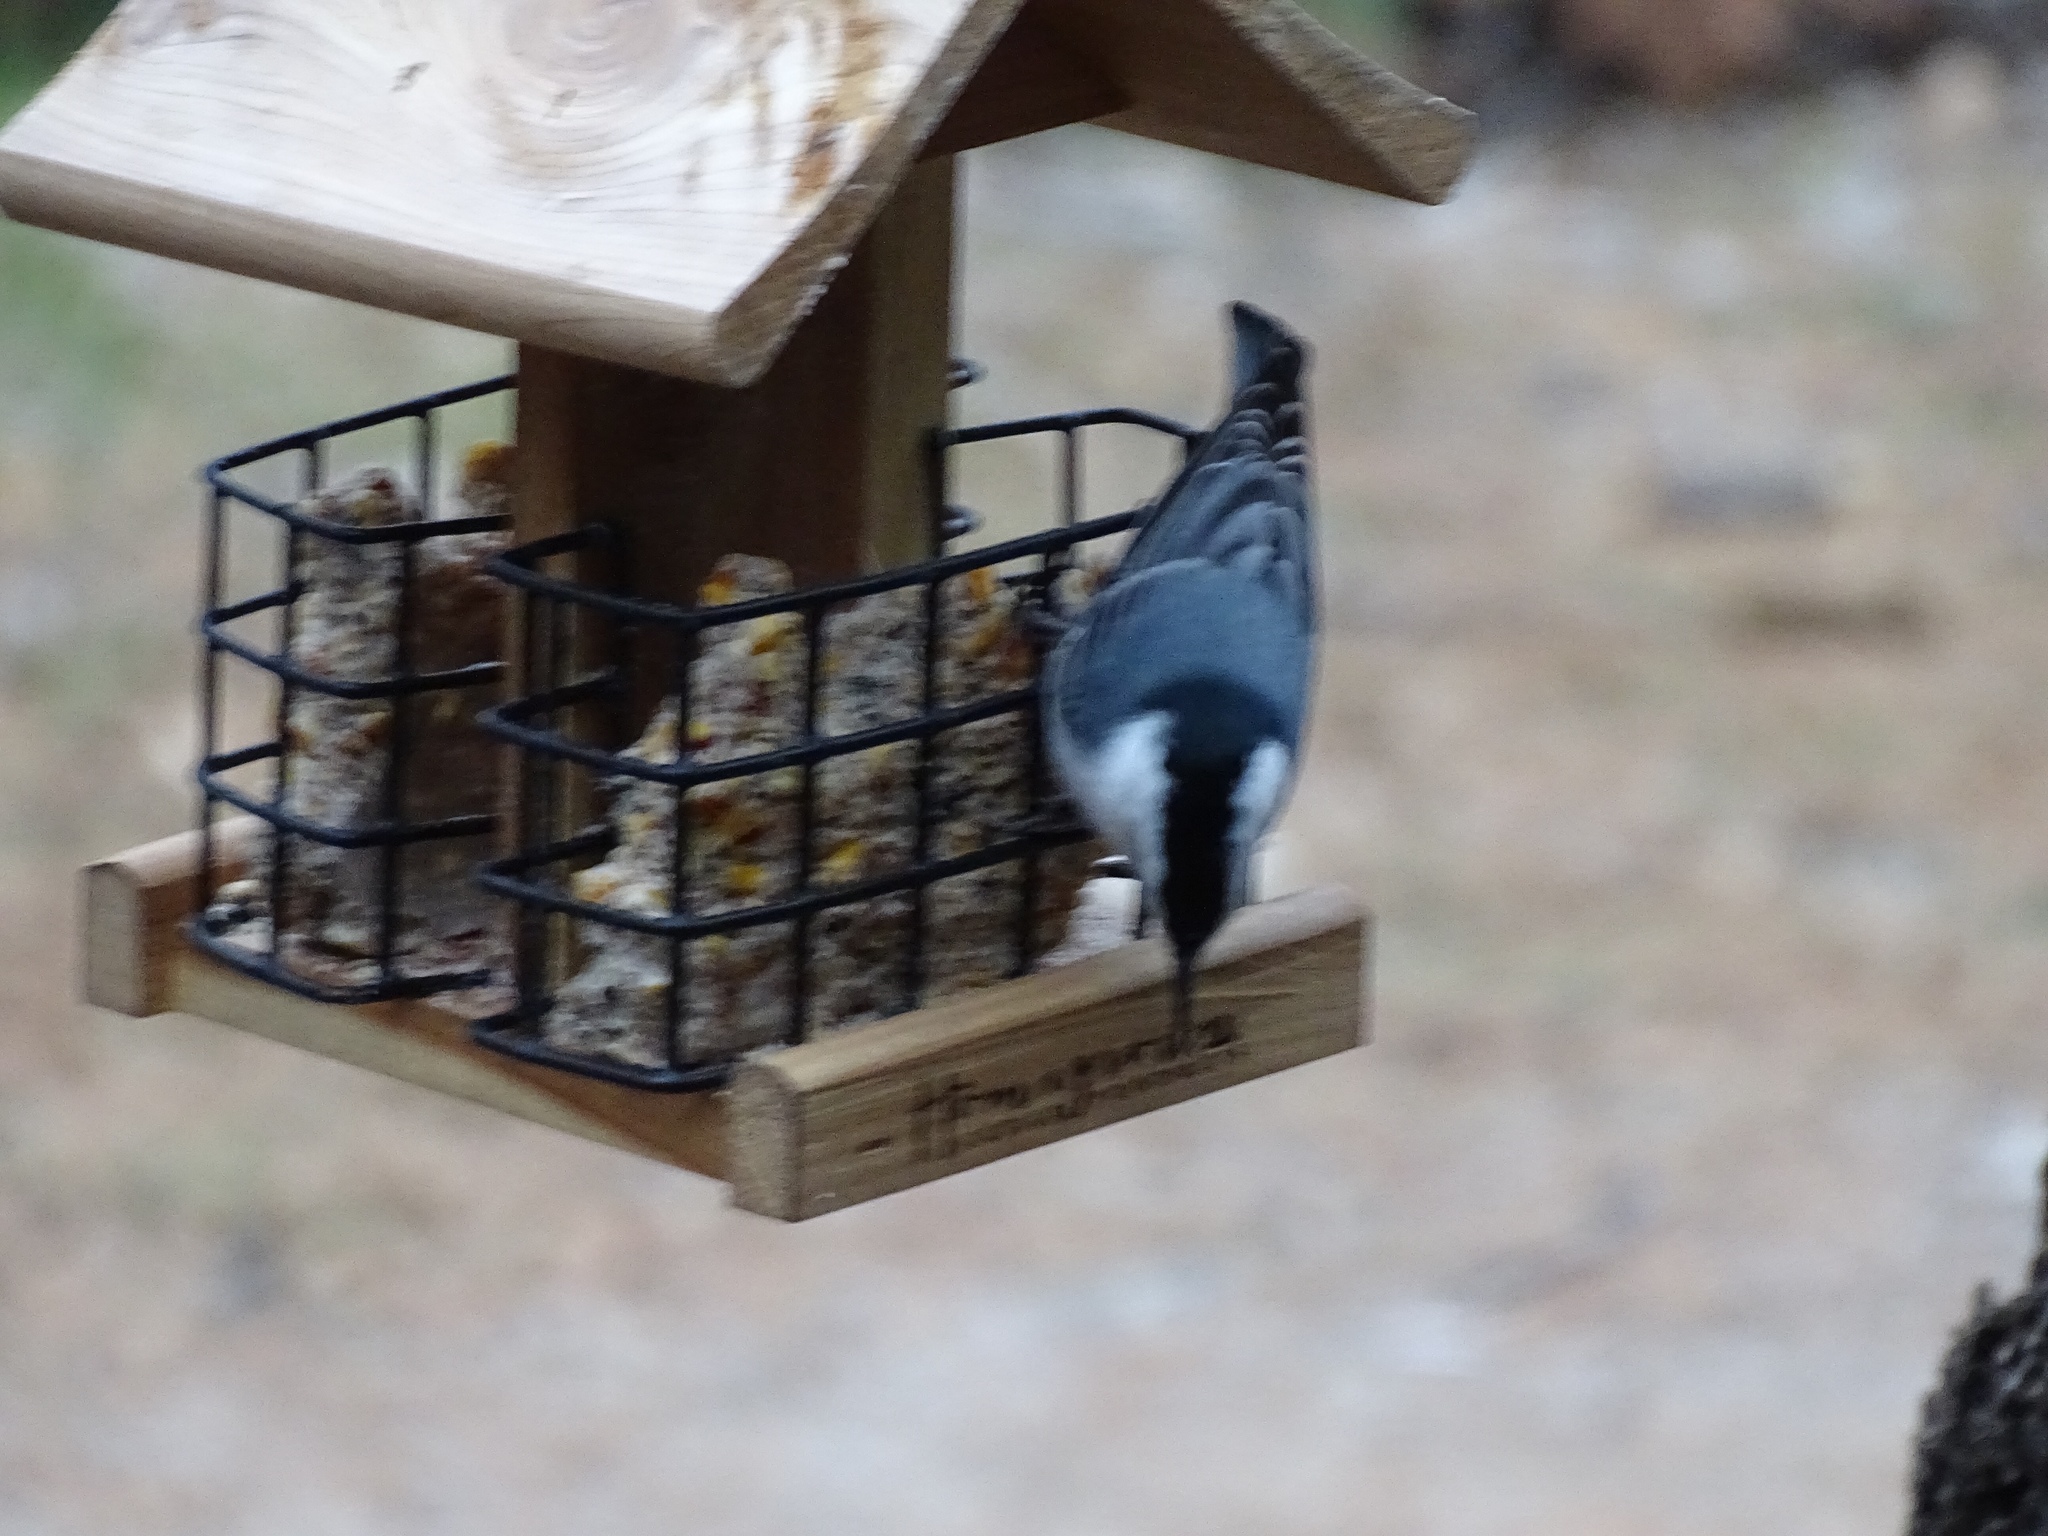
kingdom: Animalia
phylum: Chordata
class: Aves
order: Passeriformes
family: Sittidae
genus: Sitta
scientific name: Sitta carolinensis
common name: White-breasted nuthatch
